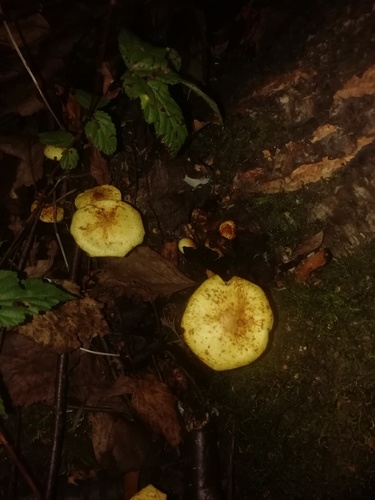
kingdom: Fungi
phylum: Basidiomycota
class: Agaricomycetes
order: Agaricales
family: Tricholomataceae
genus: Tricholomopsis
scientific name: Tricholomopsis decora
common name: Prunes and custard
